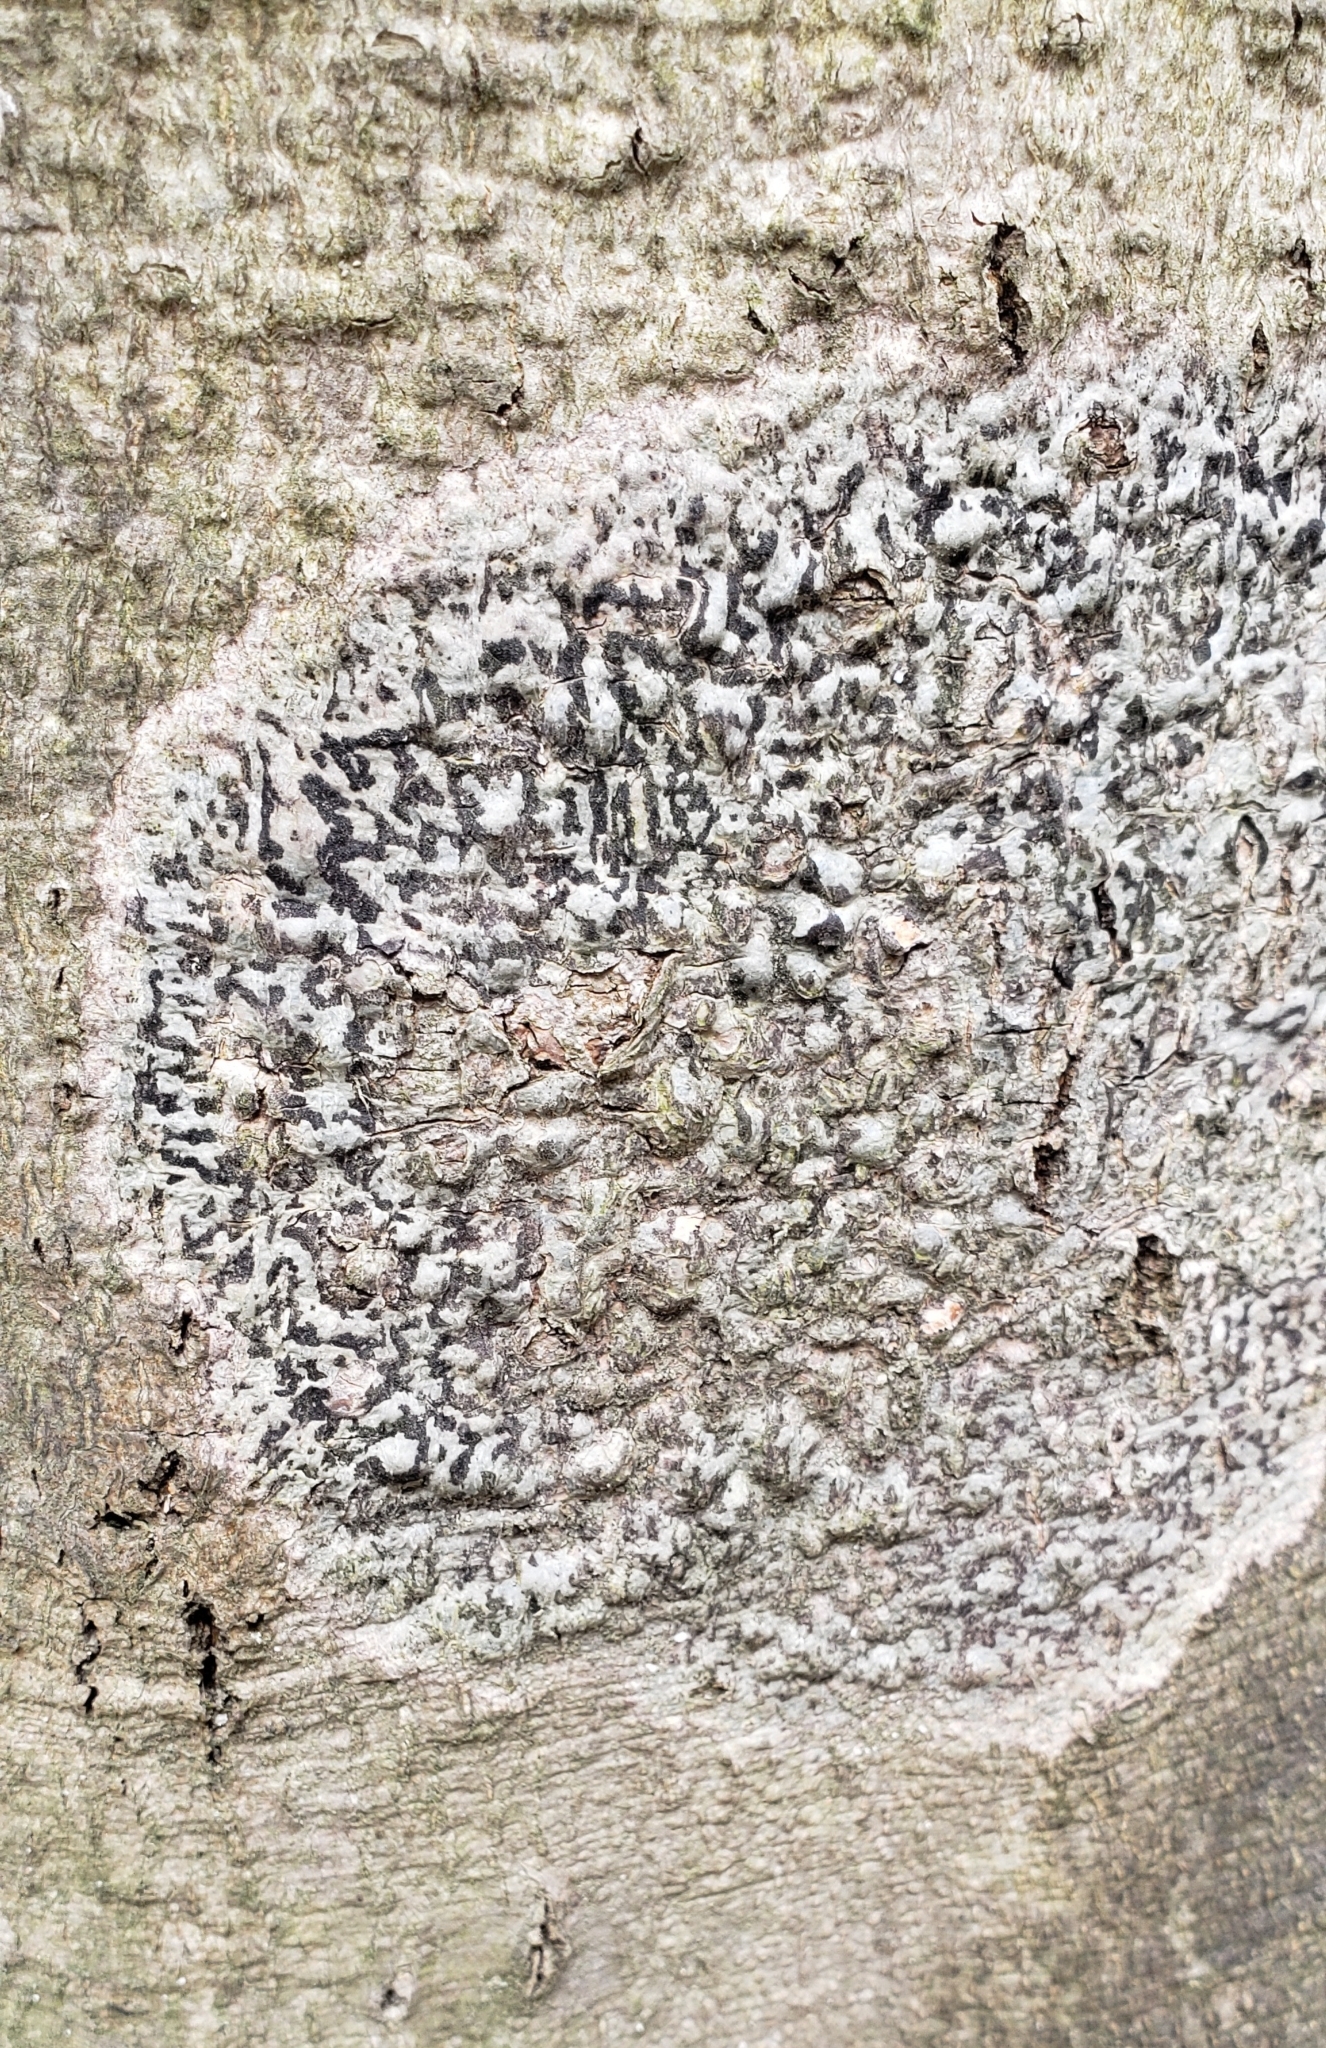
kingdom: Fungi
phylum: Ascomycota
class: Dothideomycetes
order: Trypetheliales
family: Trypetheliaceae
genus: Viridothelium
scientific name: Viridothelium virens
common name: Speckled blister lichen
